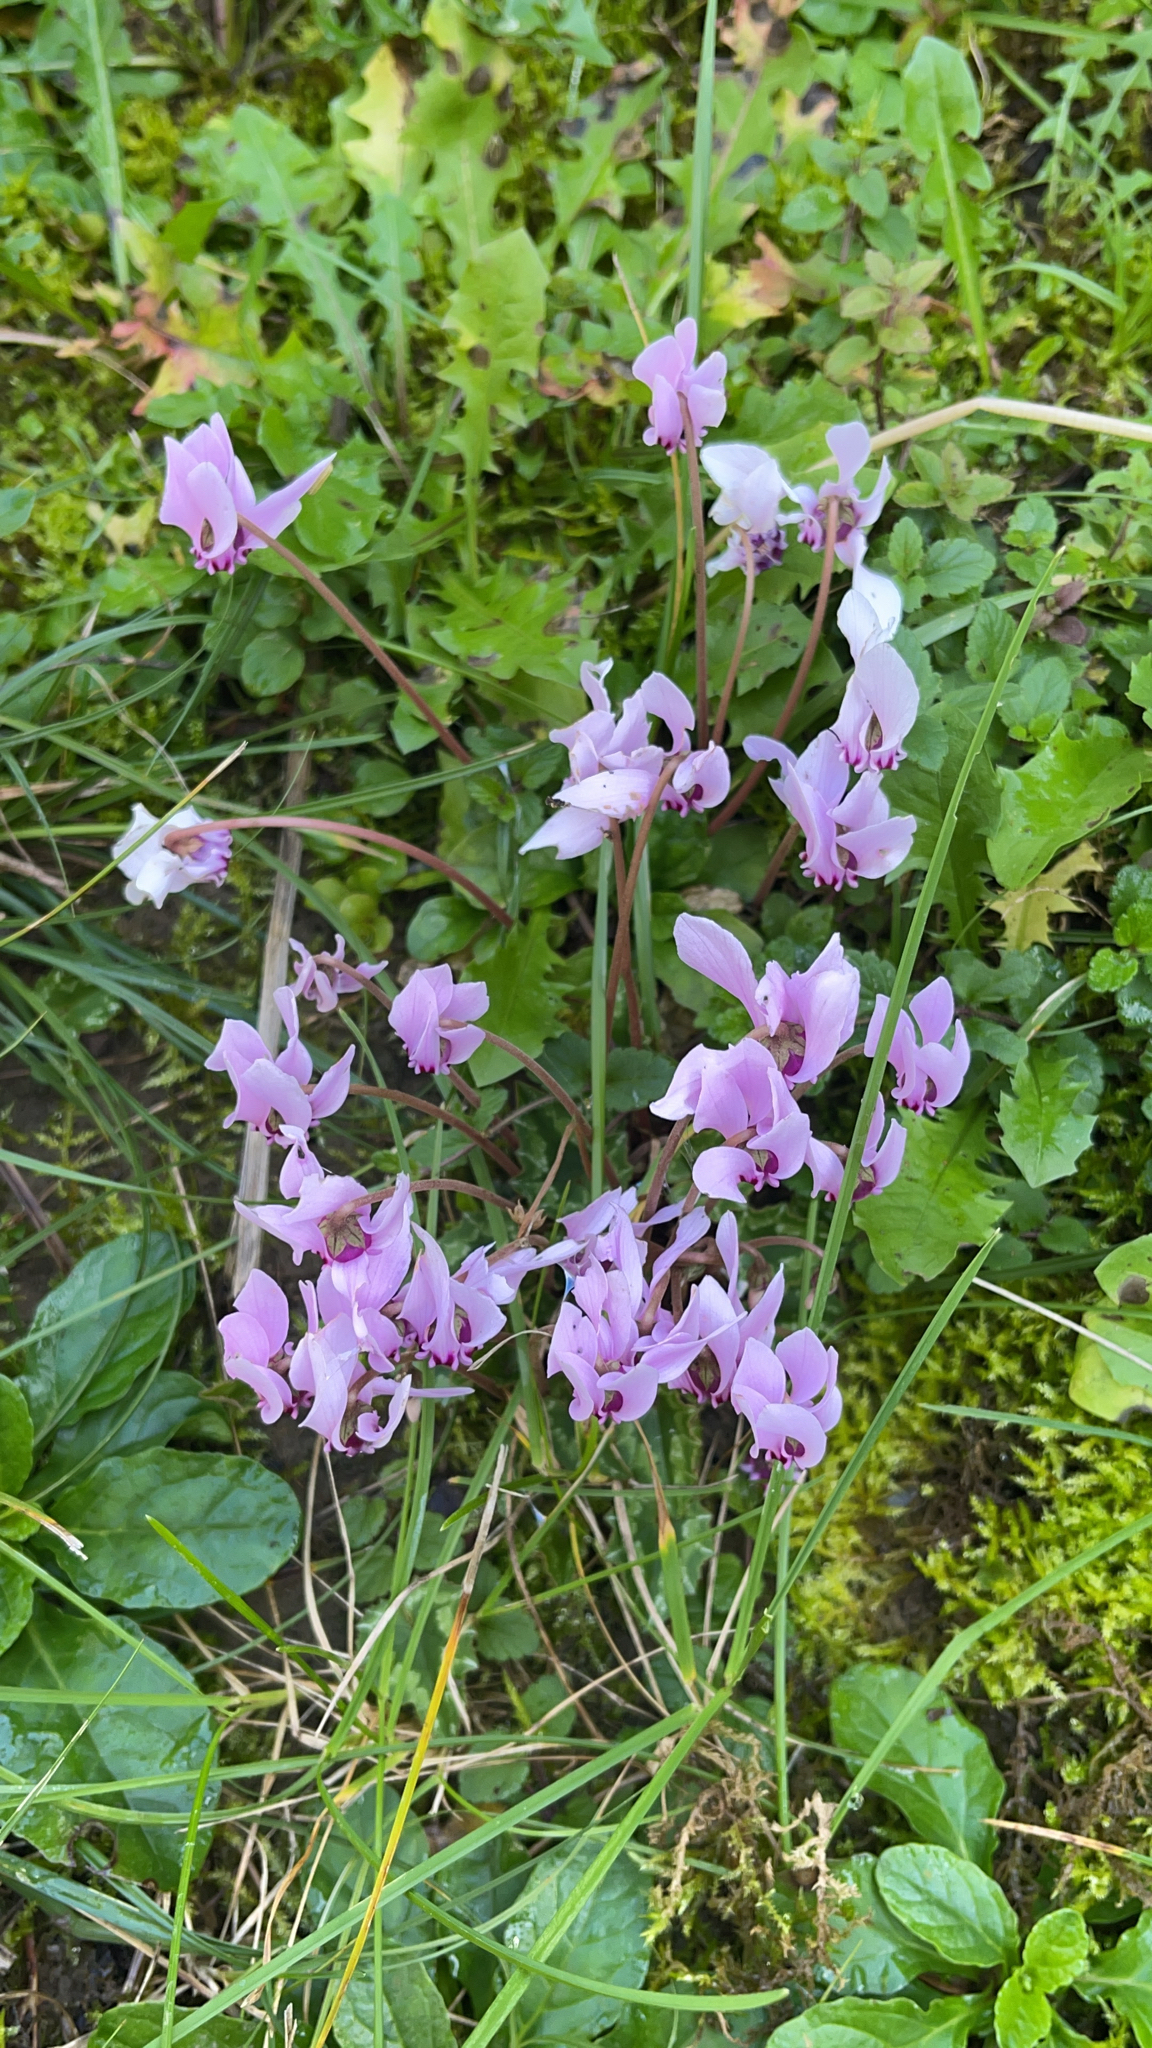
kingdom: Plantae
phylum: Tracheophyta
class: Magnoliopsida
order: Ericales
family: Primulaceae
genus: Cyclamen
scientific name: Cyclamen hederifolium
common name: Sowbread
